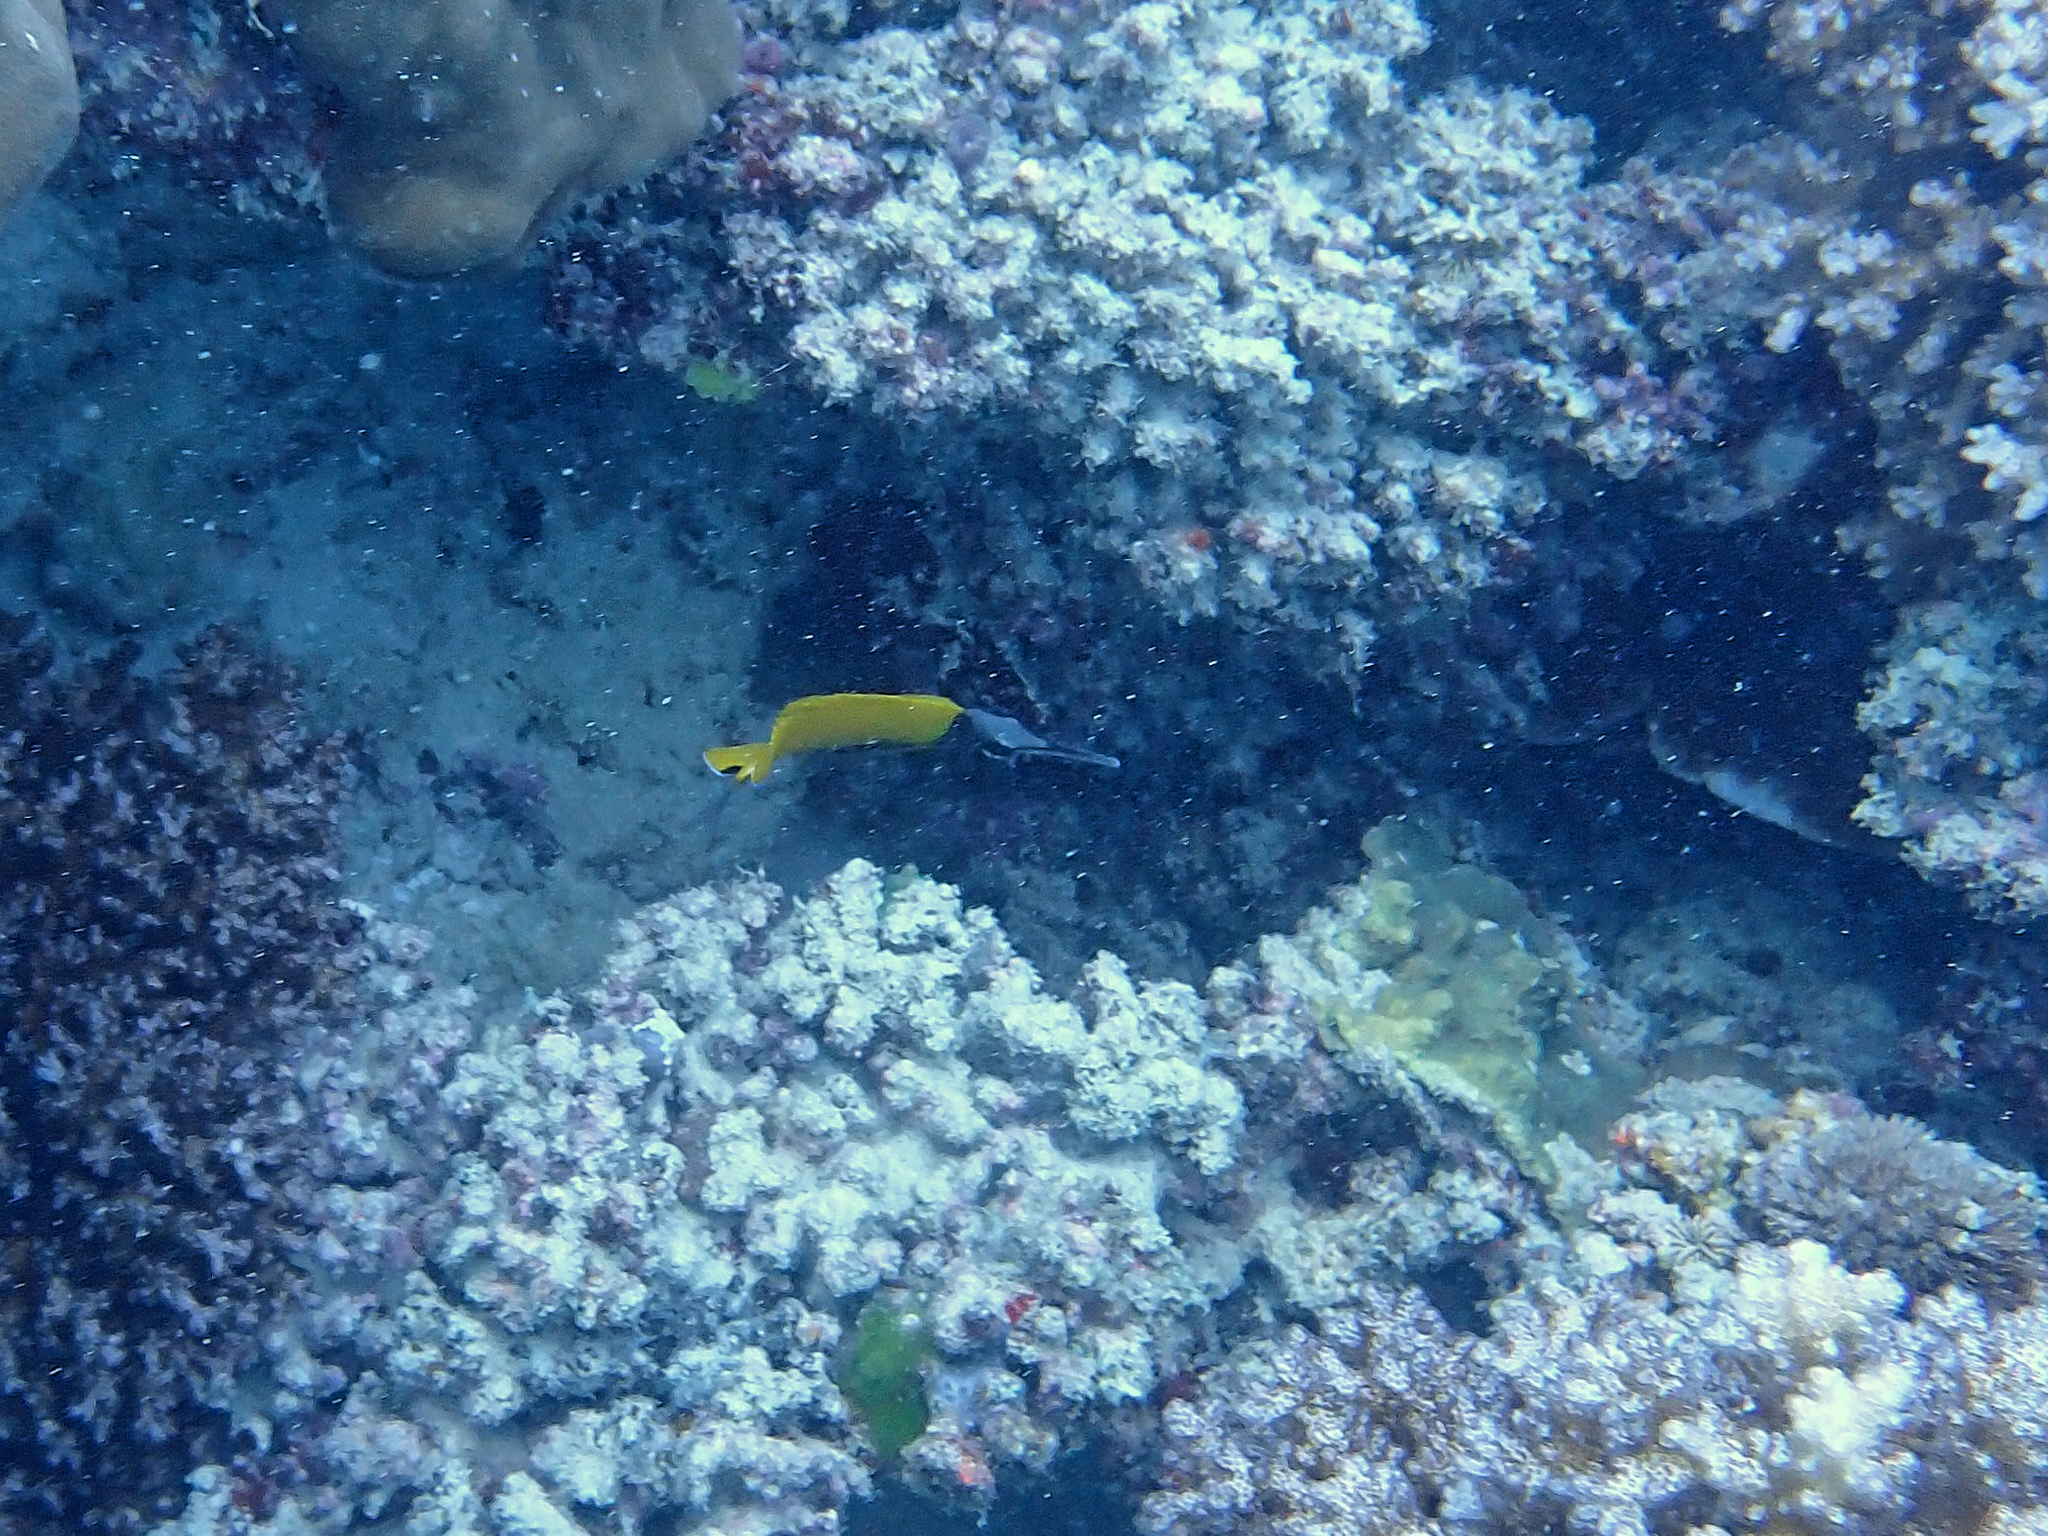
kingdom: Animalia
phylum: Chordata
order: Perciformes
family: Chaetodontidae
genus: Forcipiger
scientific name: Forcipiger flavissimus
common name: Forcepsfish
